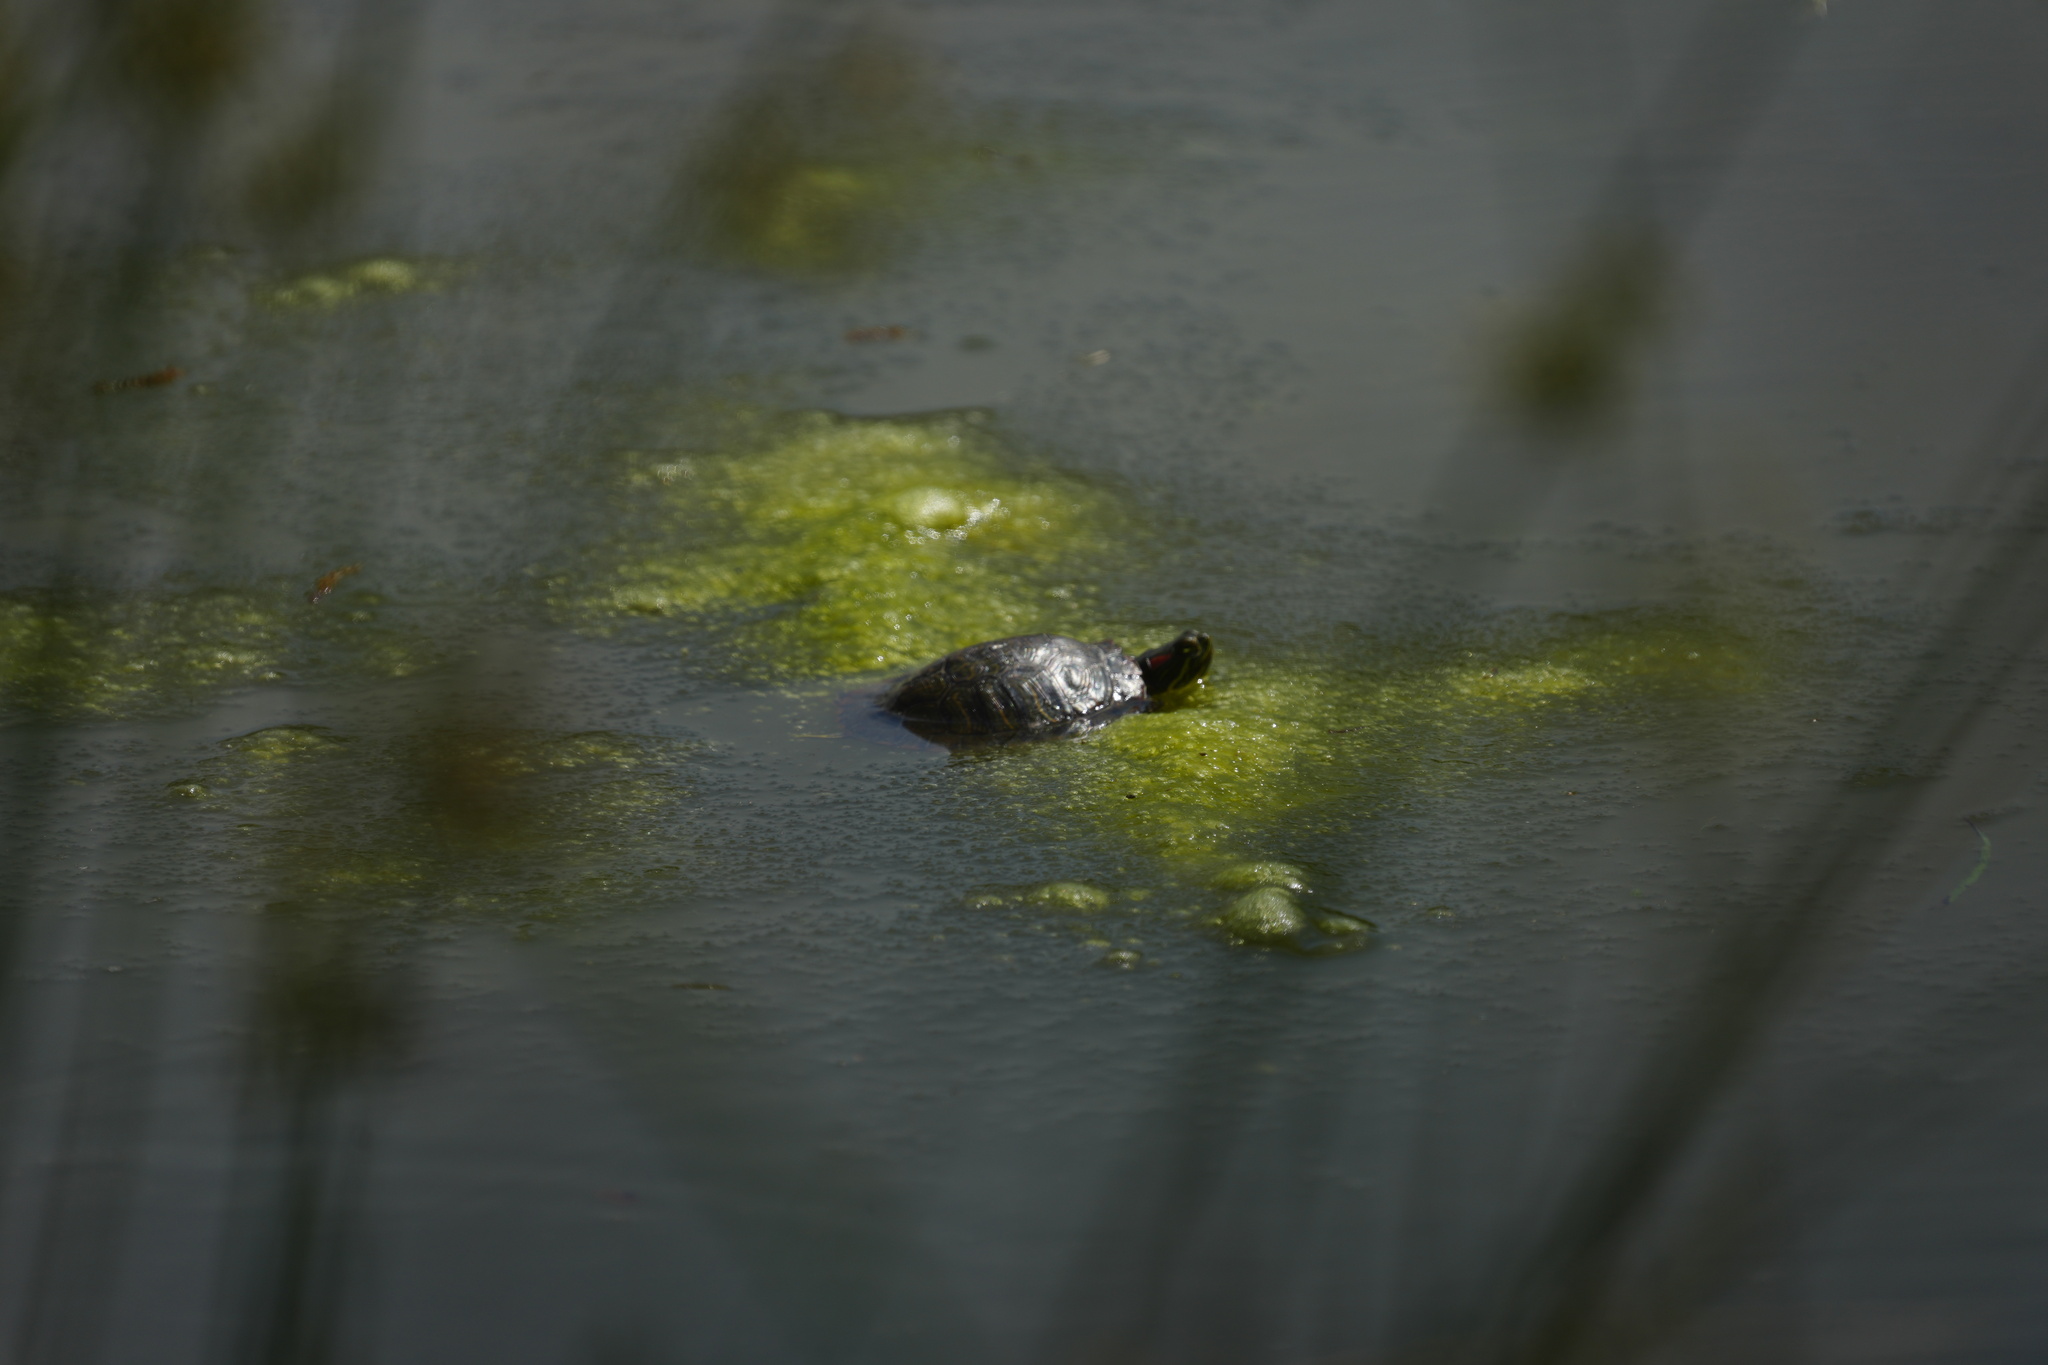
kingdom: Animalia
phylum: Chordata
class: Testudines
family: Emydidae
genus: Trachemys
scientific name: Trachemys scripta
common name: Slider
